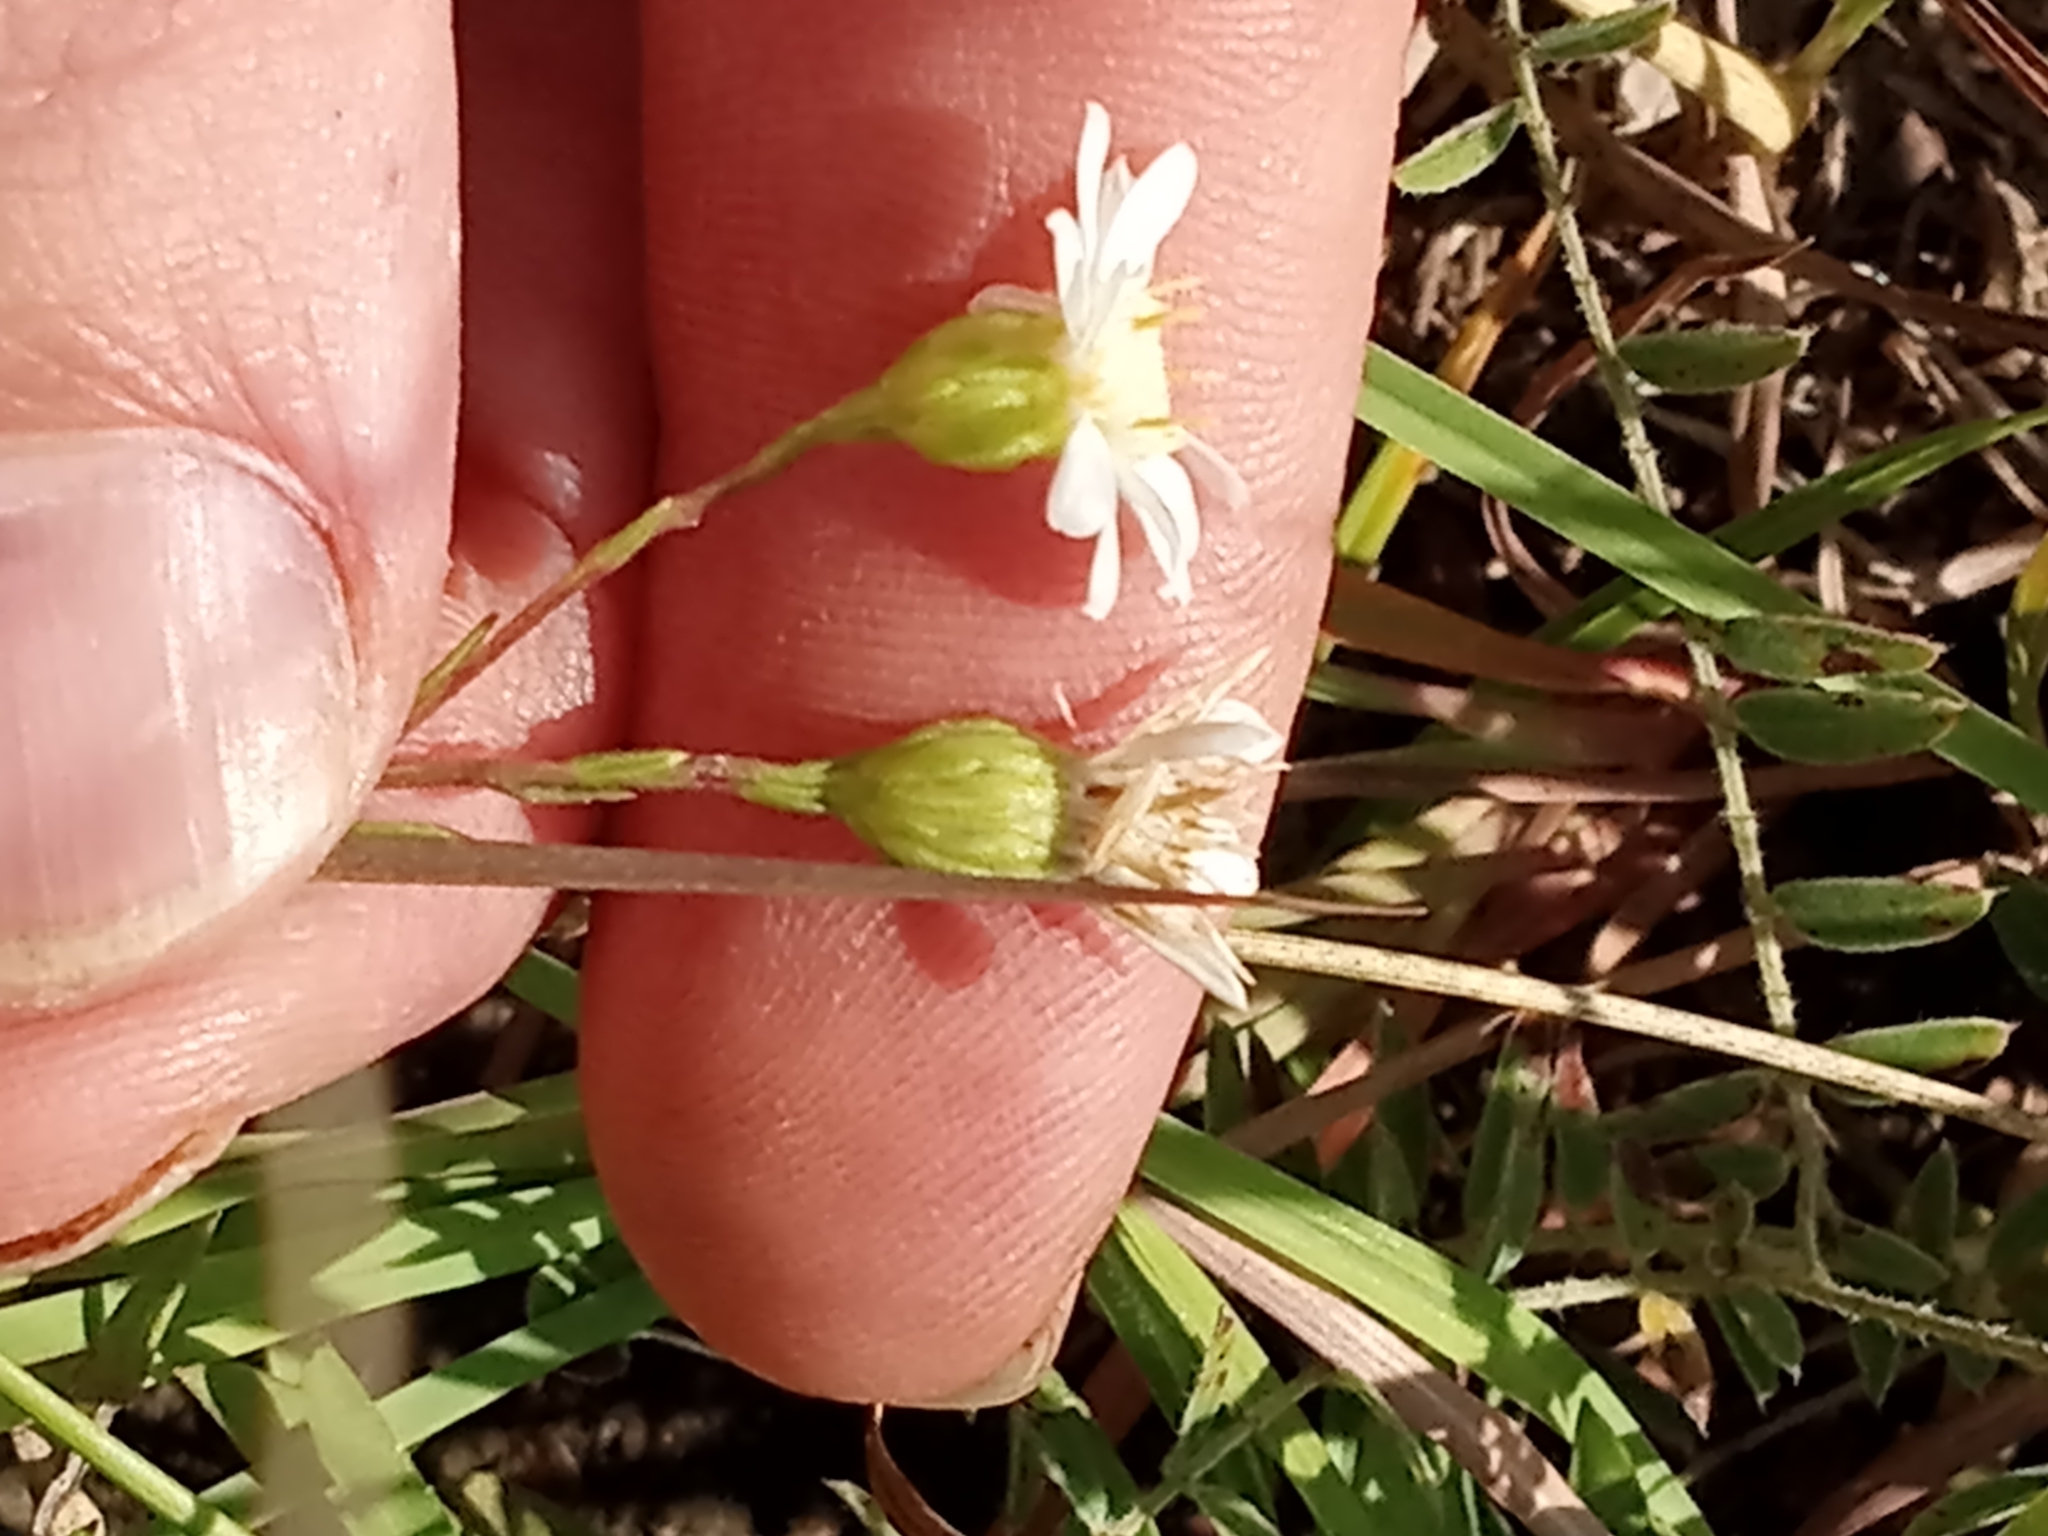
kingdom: Plantae
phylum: Tracheophyta
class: Magnoliopsida
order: Asterales
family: Asteraceae
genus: Solidago
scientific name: Solidago ptarmicoides
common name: White flat-top goldenrod
